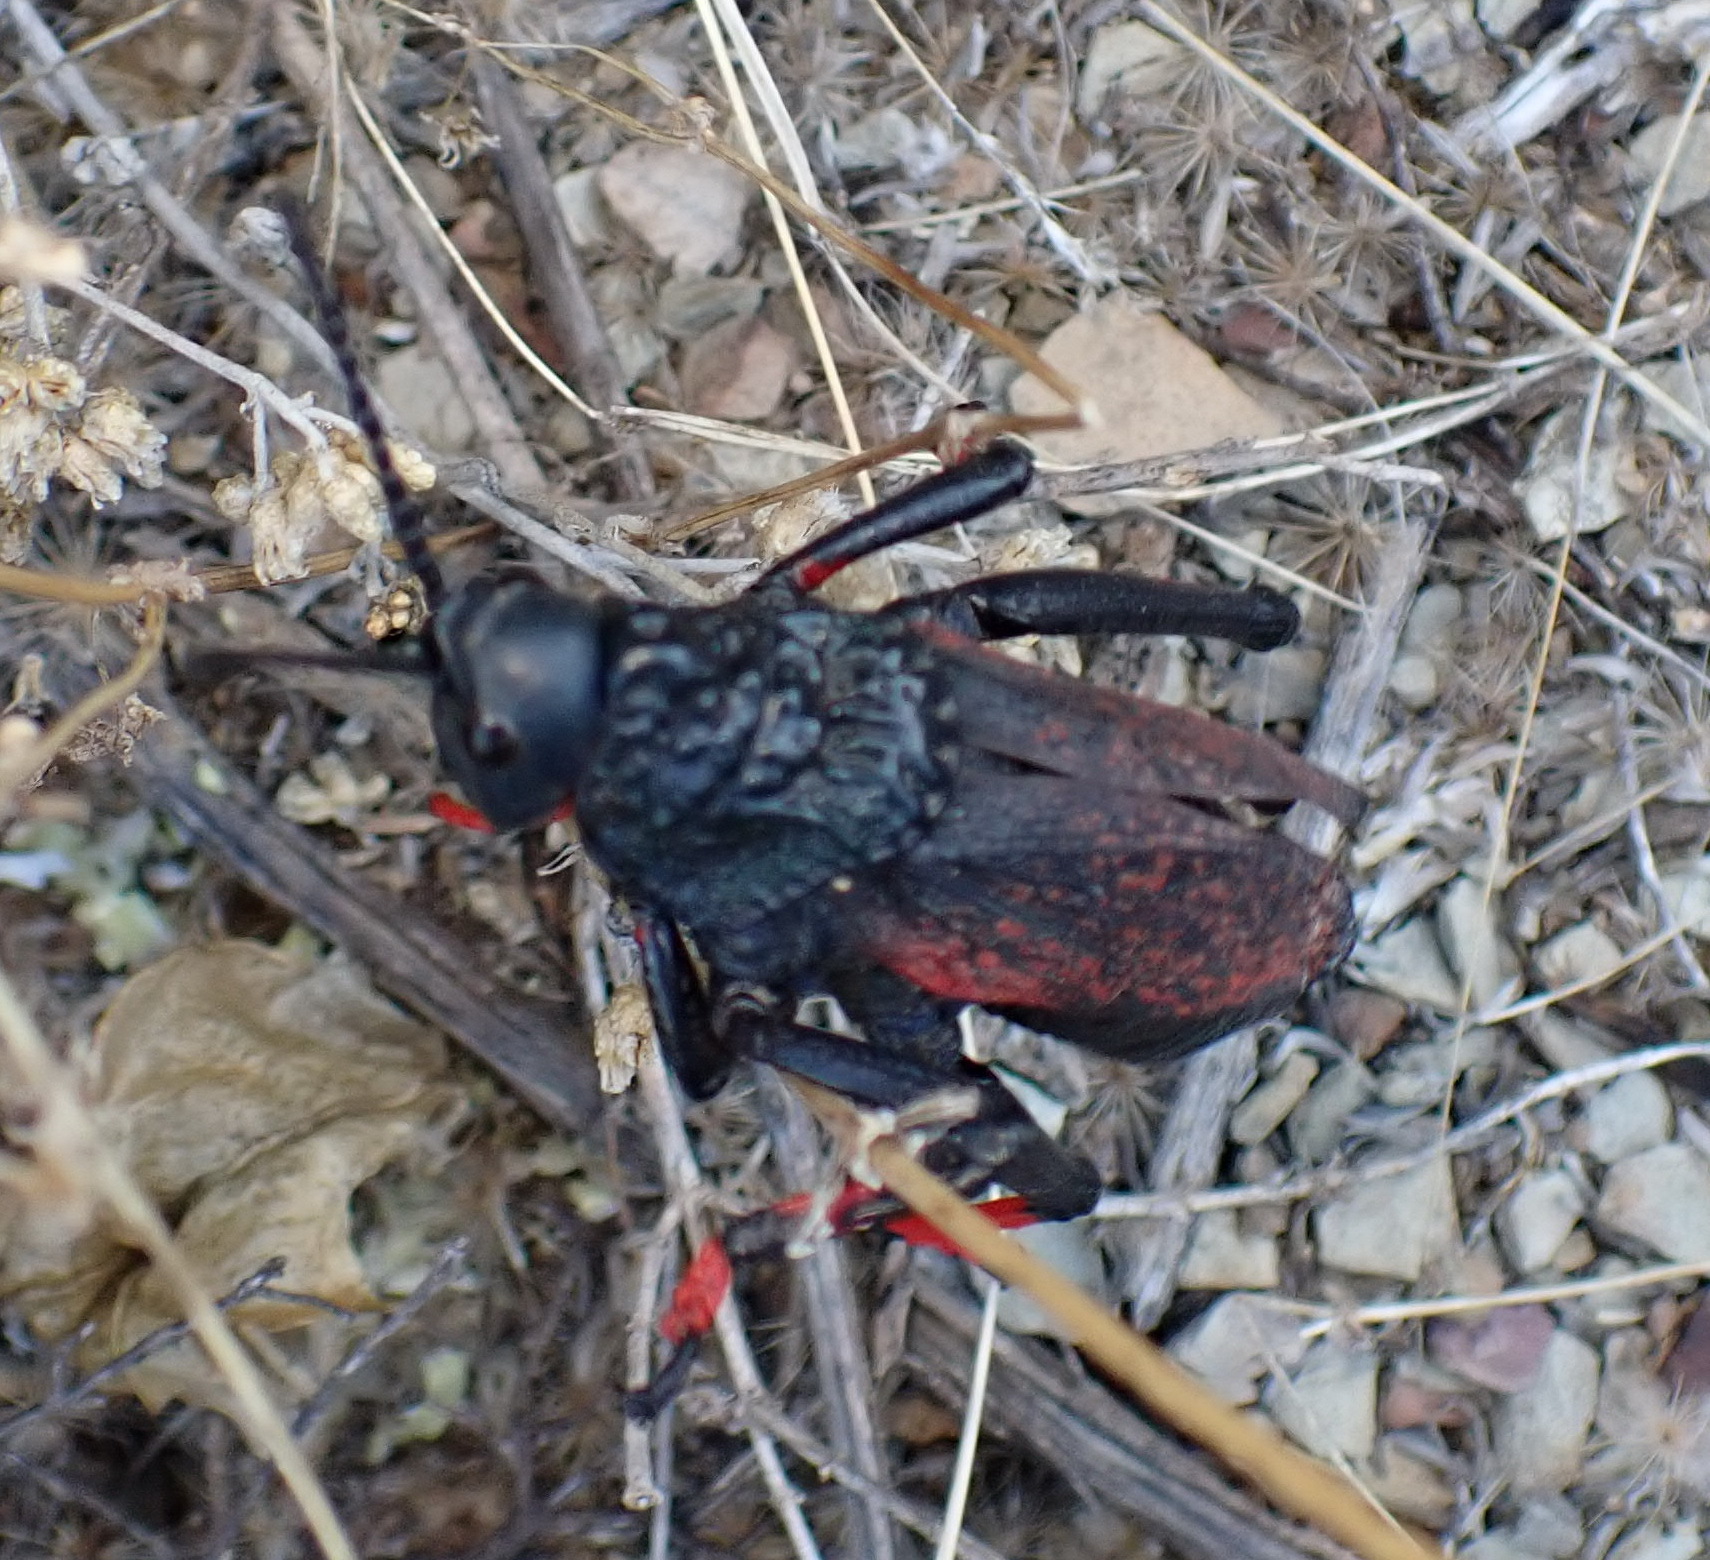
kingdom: Animalia
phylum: Arthropoda
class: Insecta
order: Orthoptera
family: Pyrgomorphidae
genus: Dictyophorus
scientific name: Dictyophorus spumans
